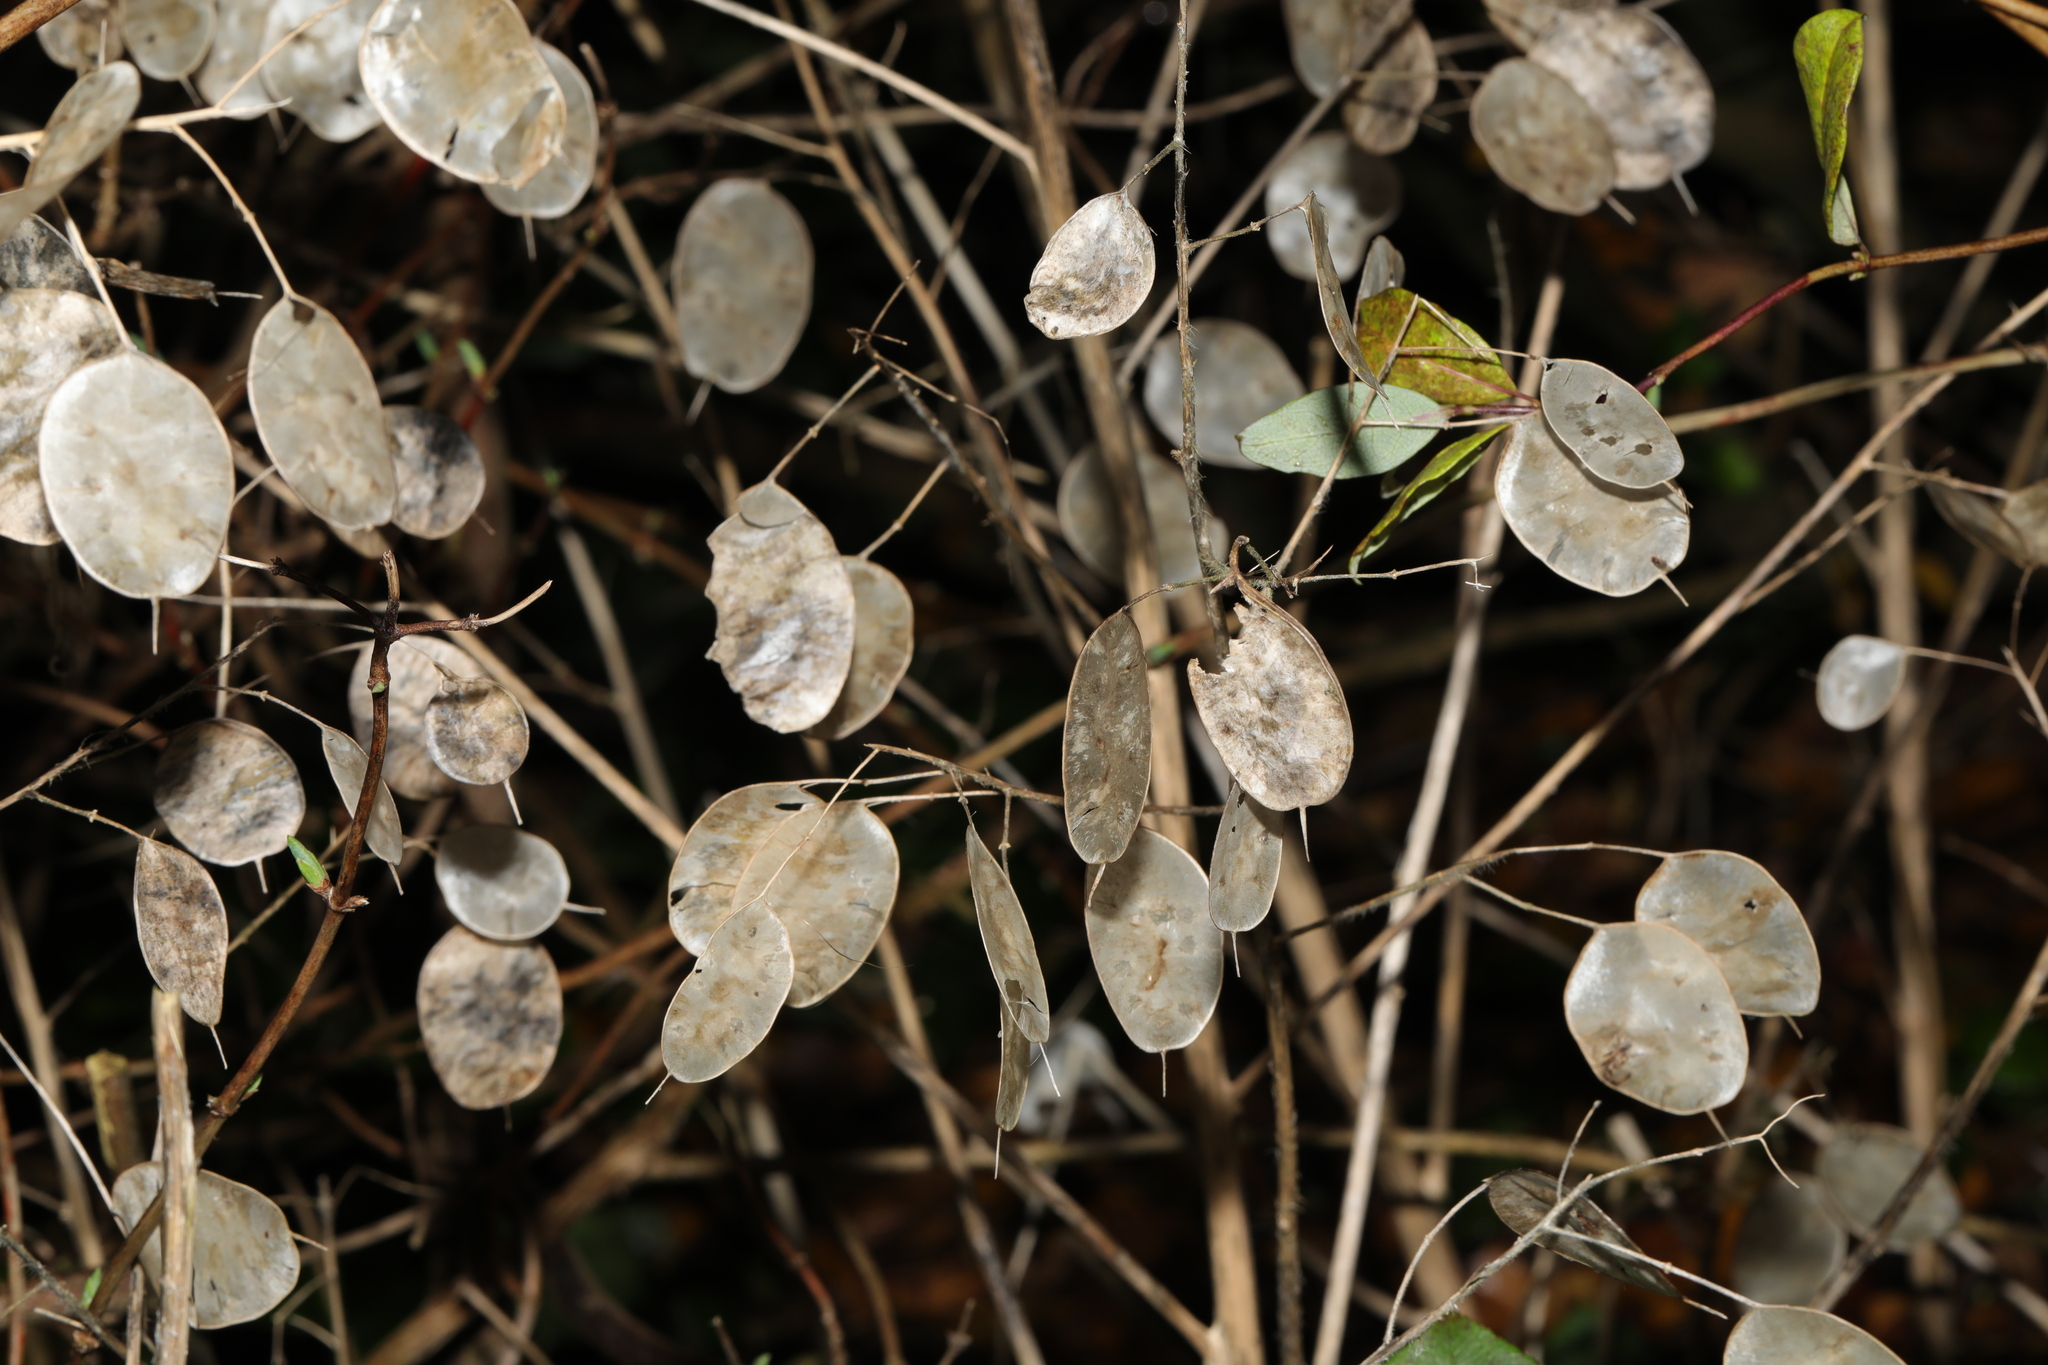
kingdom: Plantae
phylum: Tracheophyta
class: Magnoliopsida
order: Brassicales
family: Brassicaceae
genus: Lunaria
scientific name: Lunaria annua
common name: Honesty
